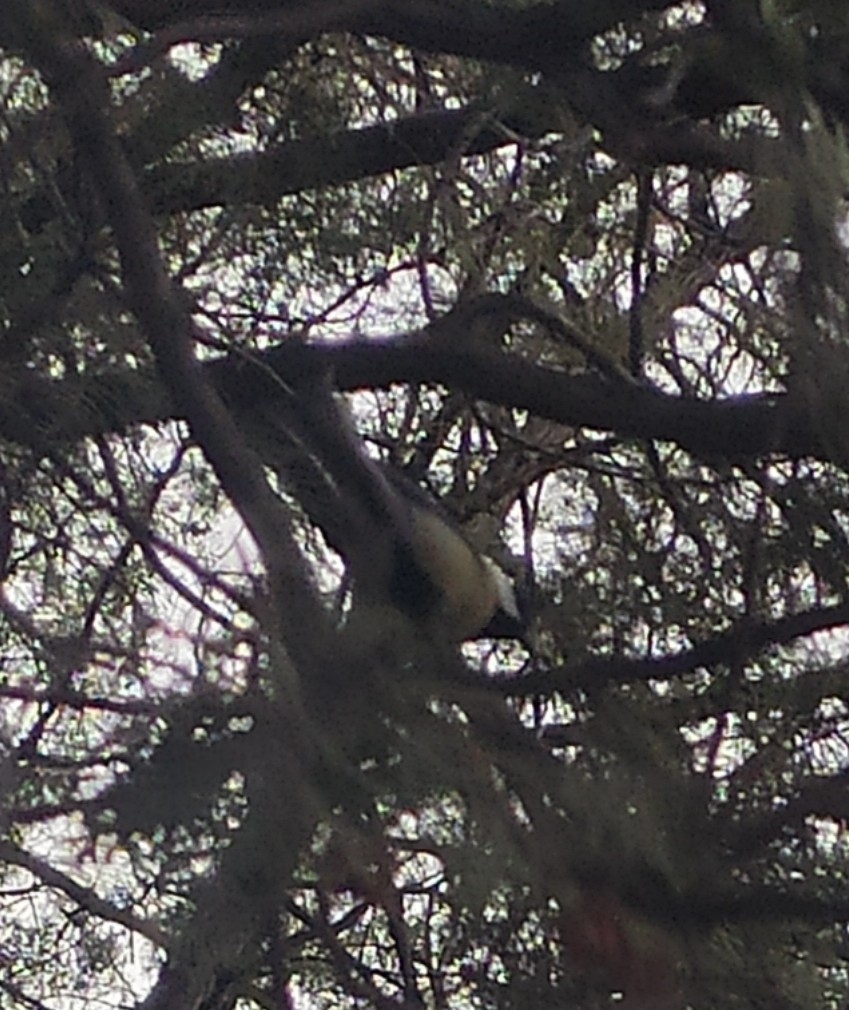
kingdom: Animalia
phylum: Chordata
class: Aves
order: Passeriformes
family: Paridae
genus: Parus
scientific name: Parus major
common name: Great tit
